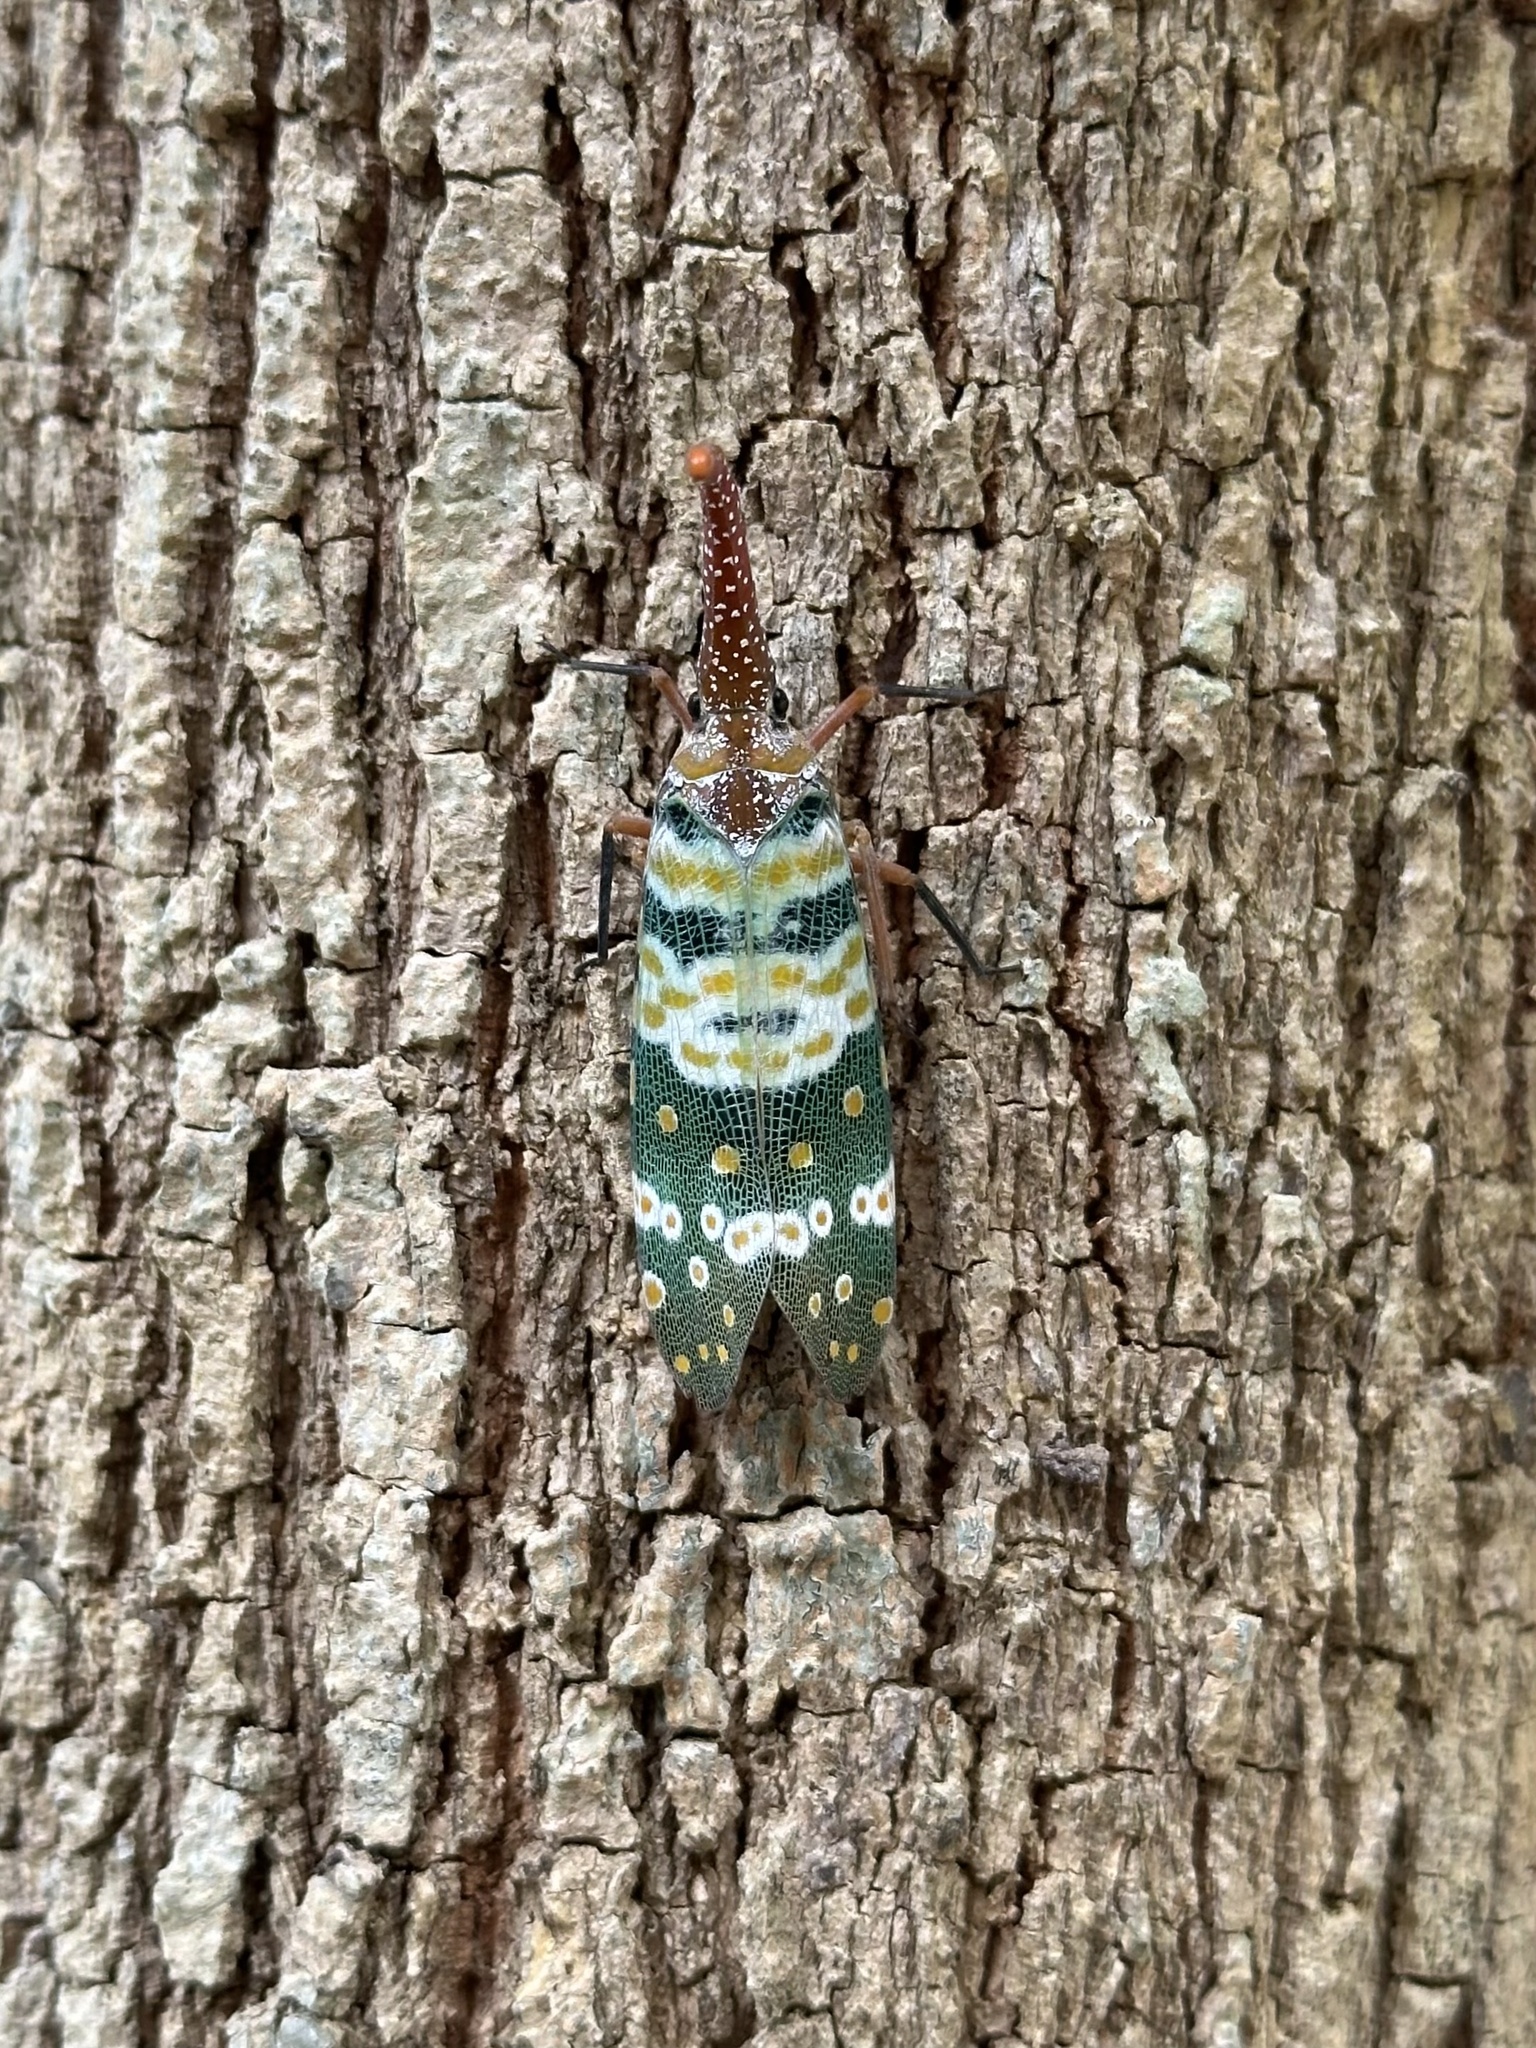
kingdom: Animalia
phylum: Arthropoda
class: Insecta
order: Hemiptera
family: Fulgoridae
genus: Pyrops
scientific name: Pyrops candelaria
